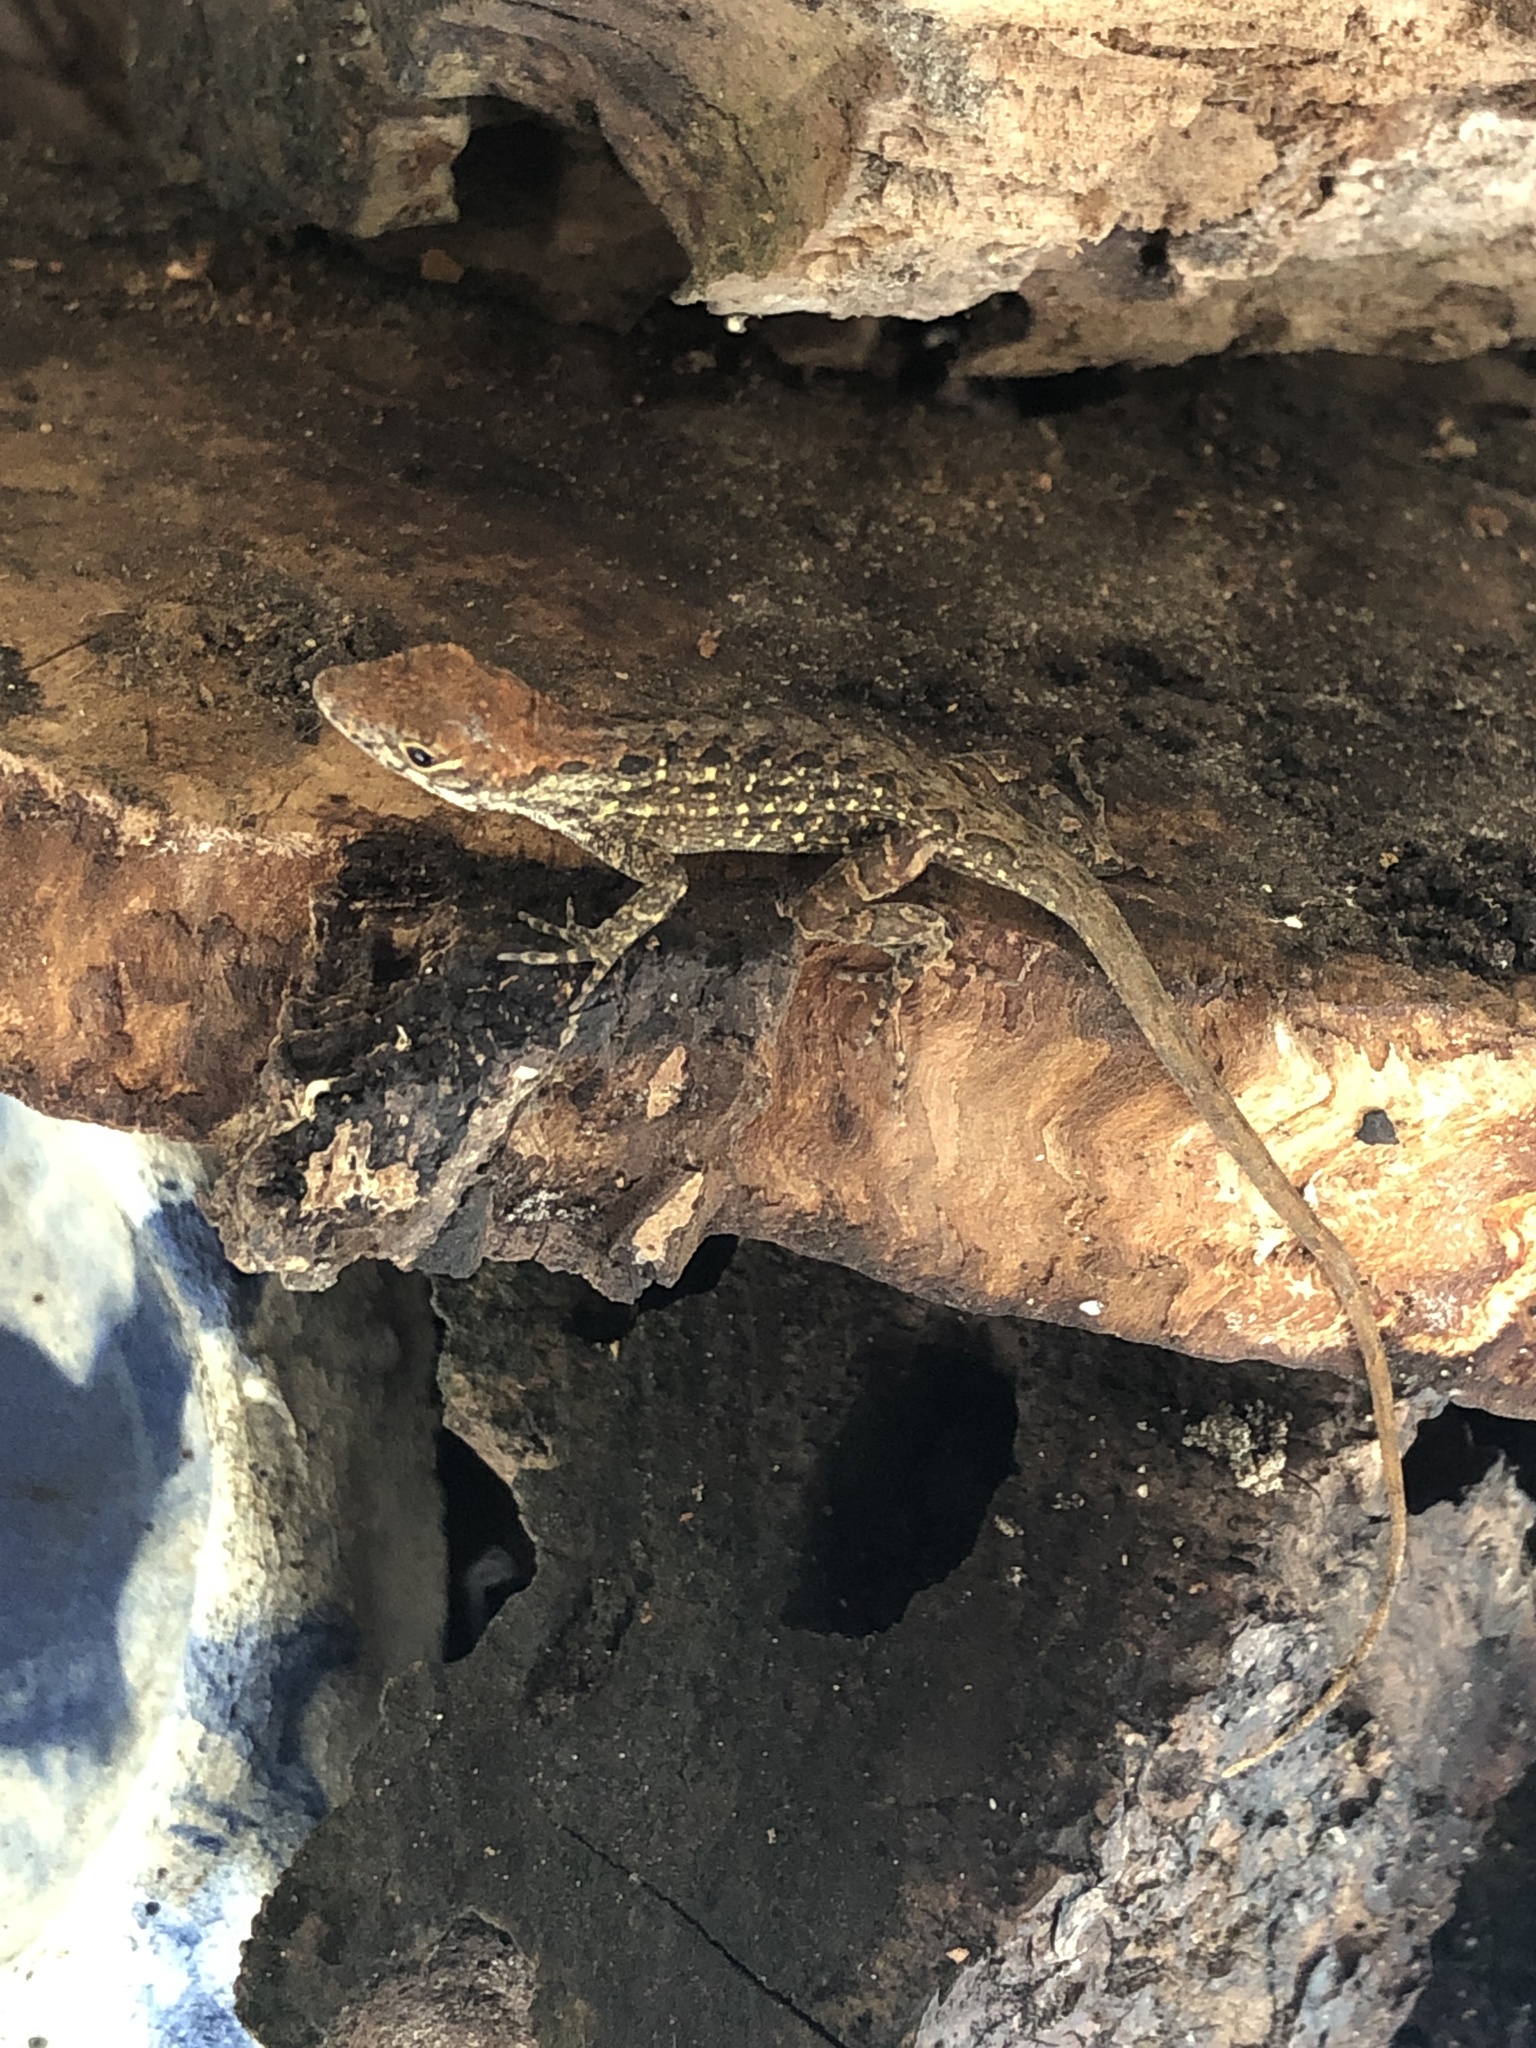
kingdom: Animalia
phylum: Chordata
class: Squamata
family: Dactyloidae
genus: Anolis
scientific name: Anolis sagrei
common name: Brown anole
